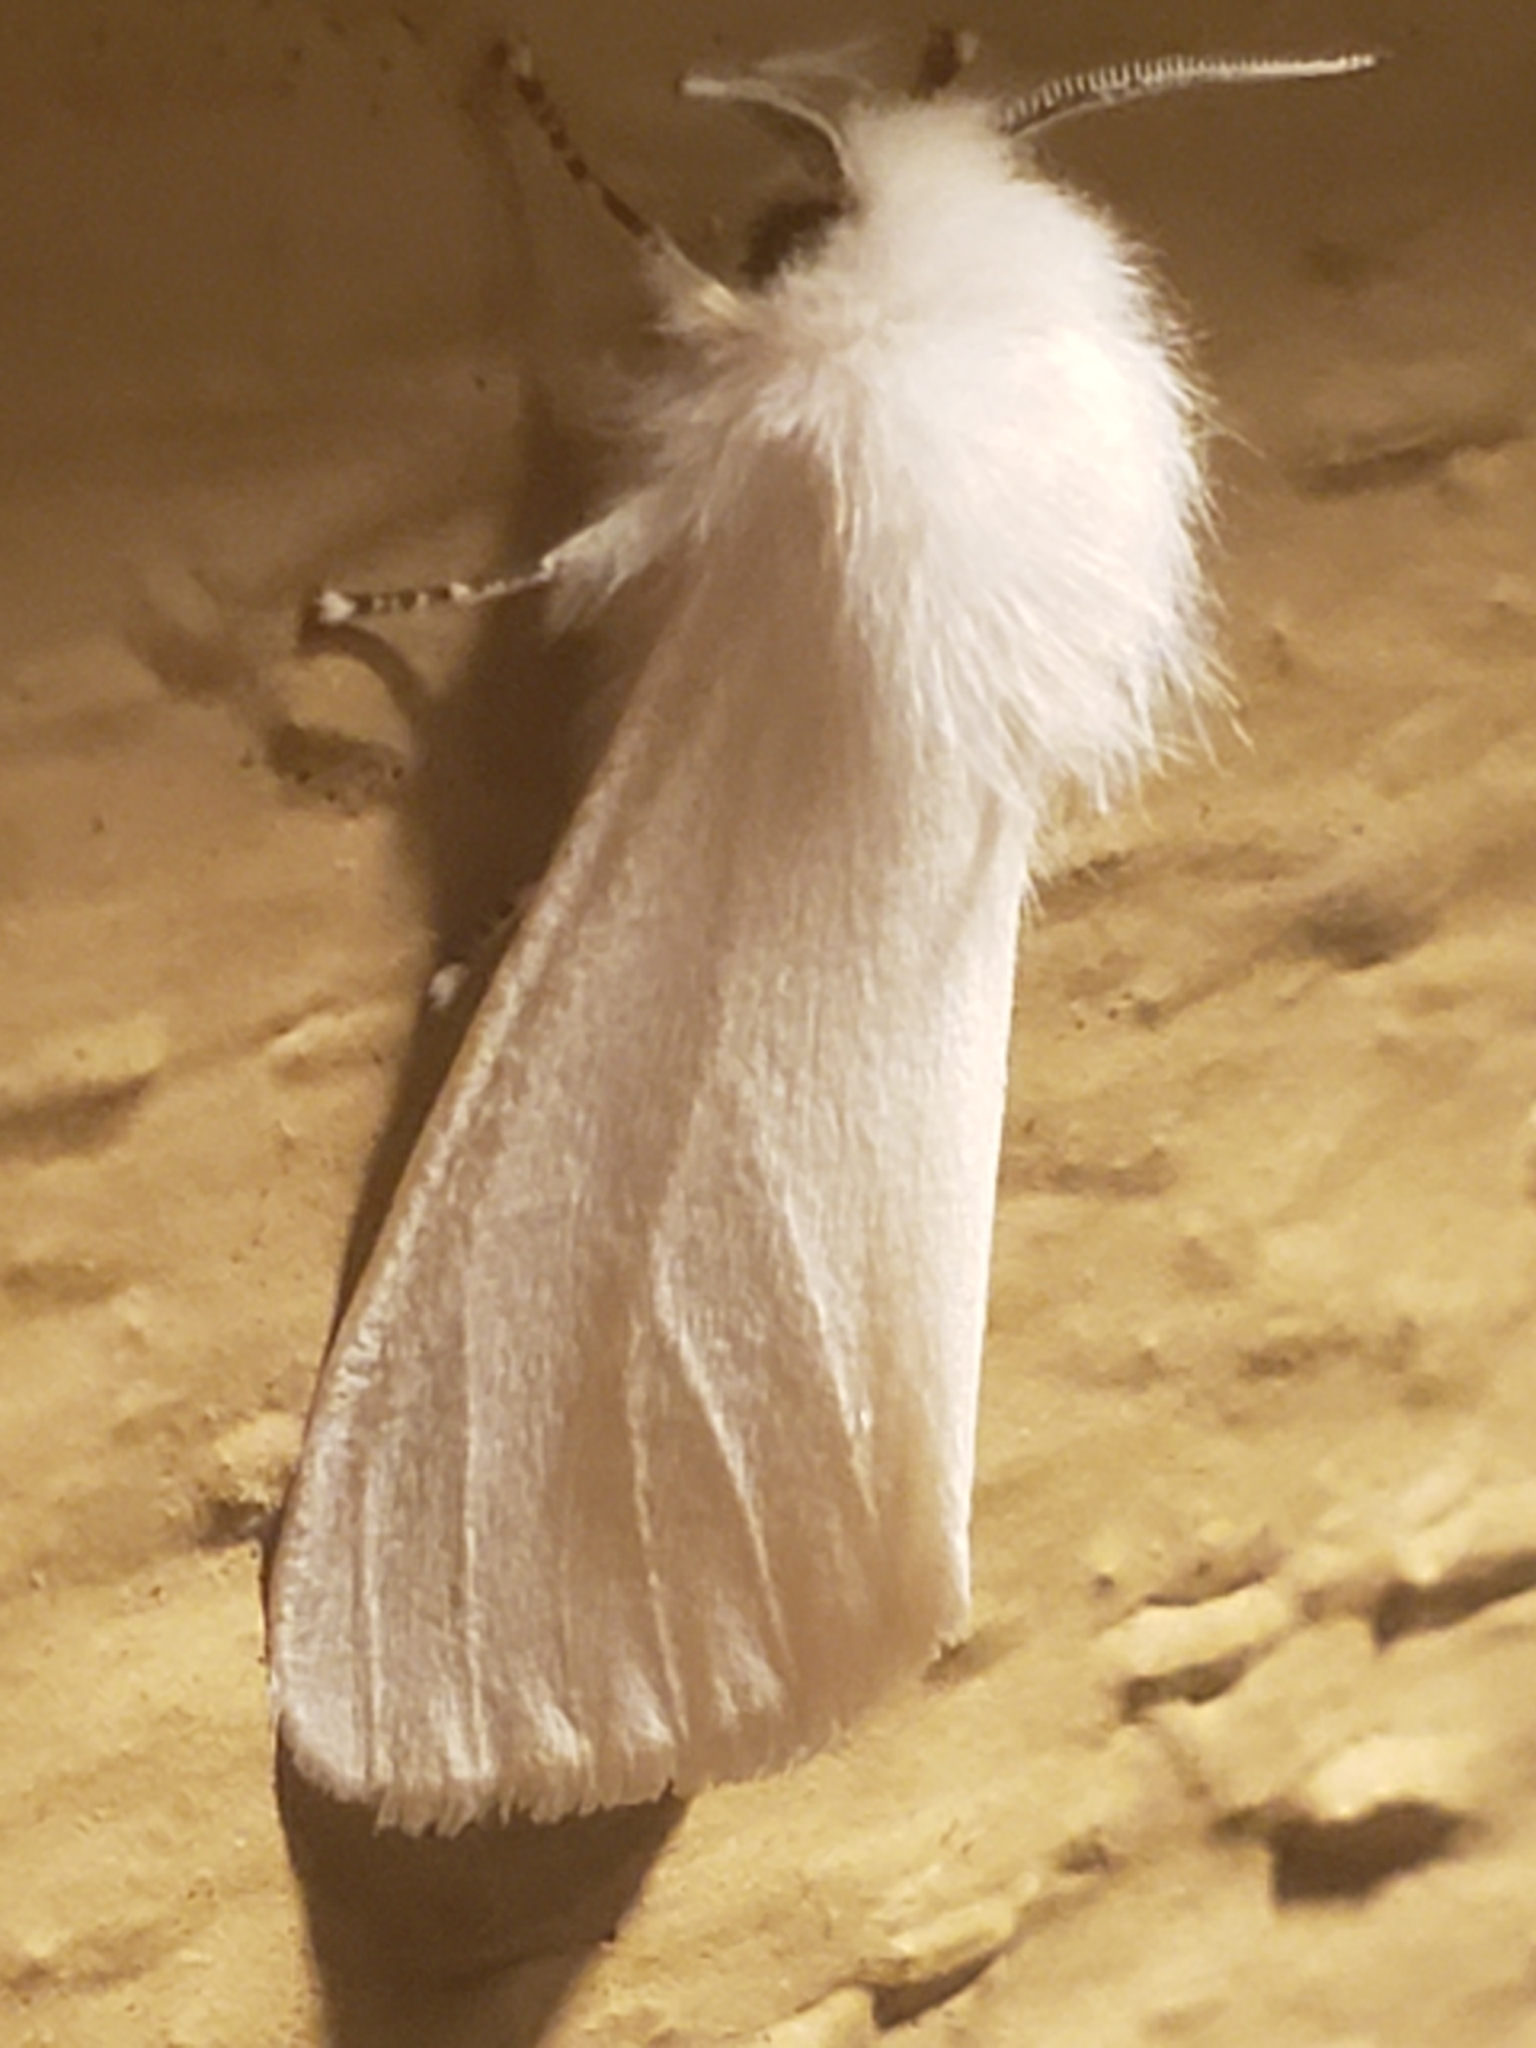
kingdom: Animalia
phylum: Arthropoda
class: Insecta
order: Lepidoptera
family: Erebidae
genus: Hyphantria
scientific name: Hyphantria cunea
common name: American white moth
